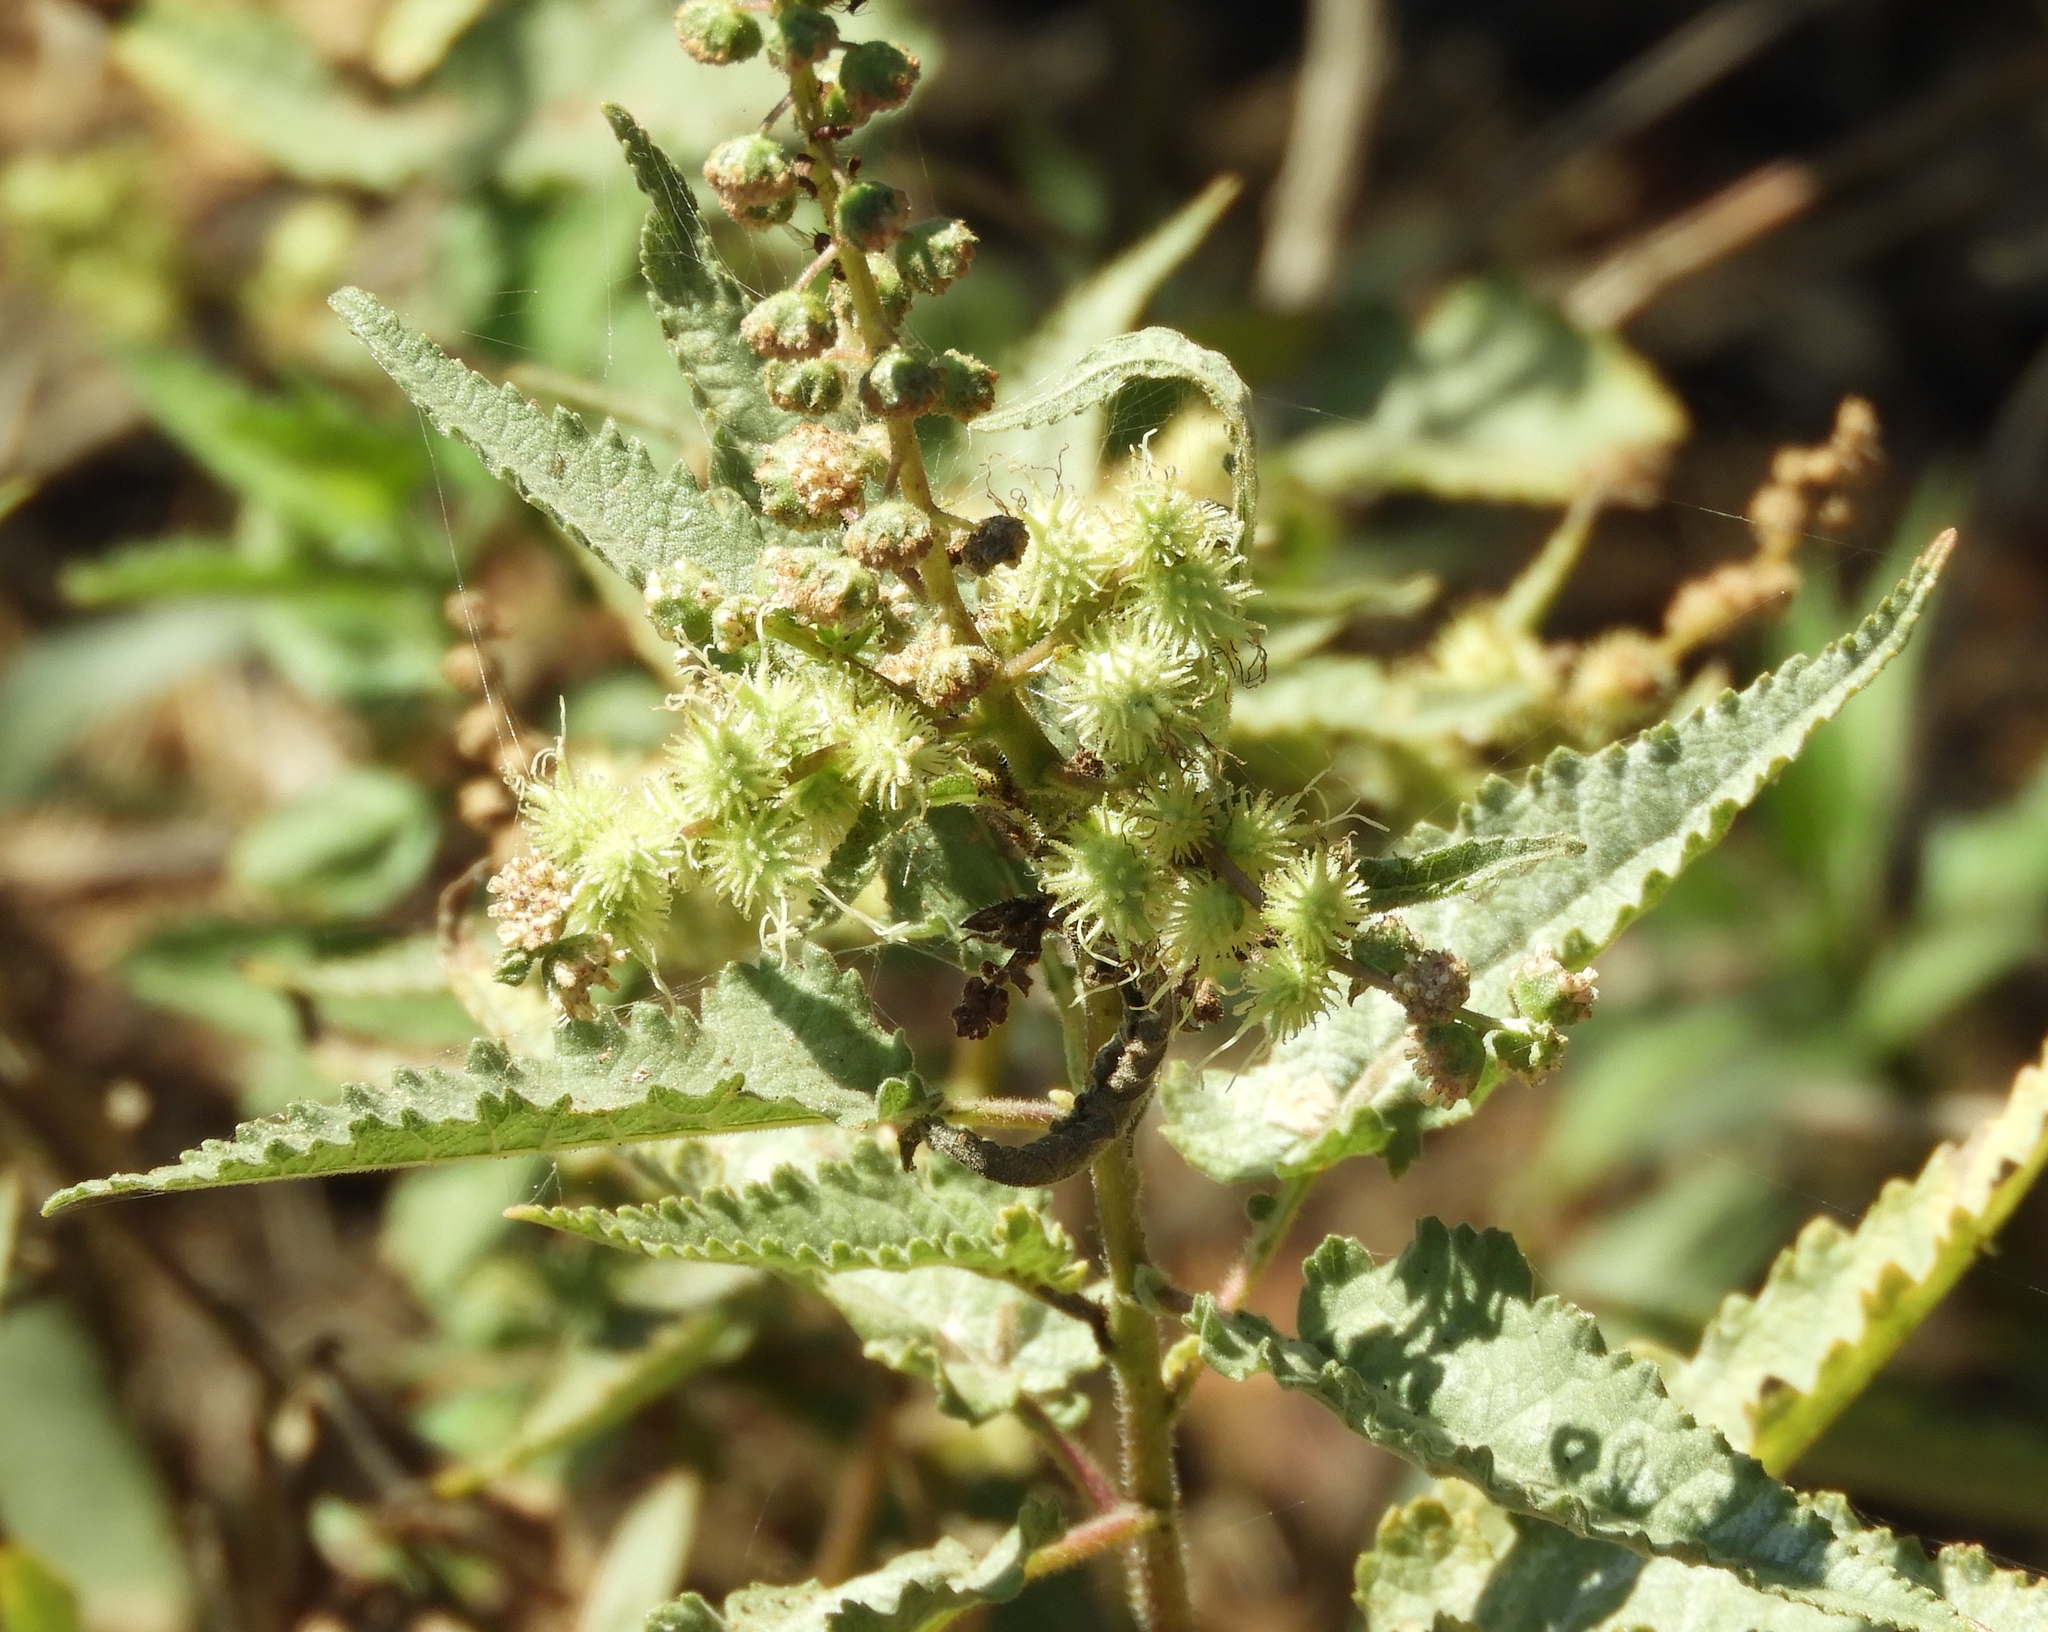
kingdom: Plantae
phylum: Tracheophyta
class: Magnoliopsida
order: Asterales
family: Asteraceae
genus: Ambrosia
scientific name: Ambrosia ambrosioides
